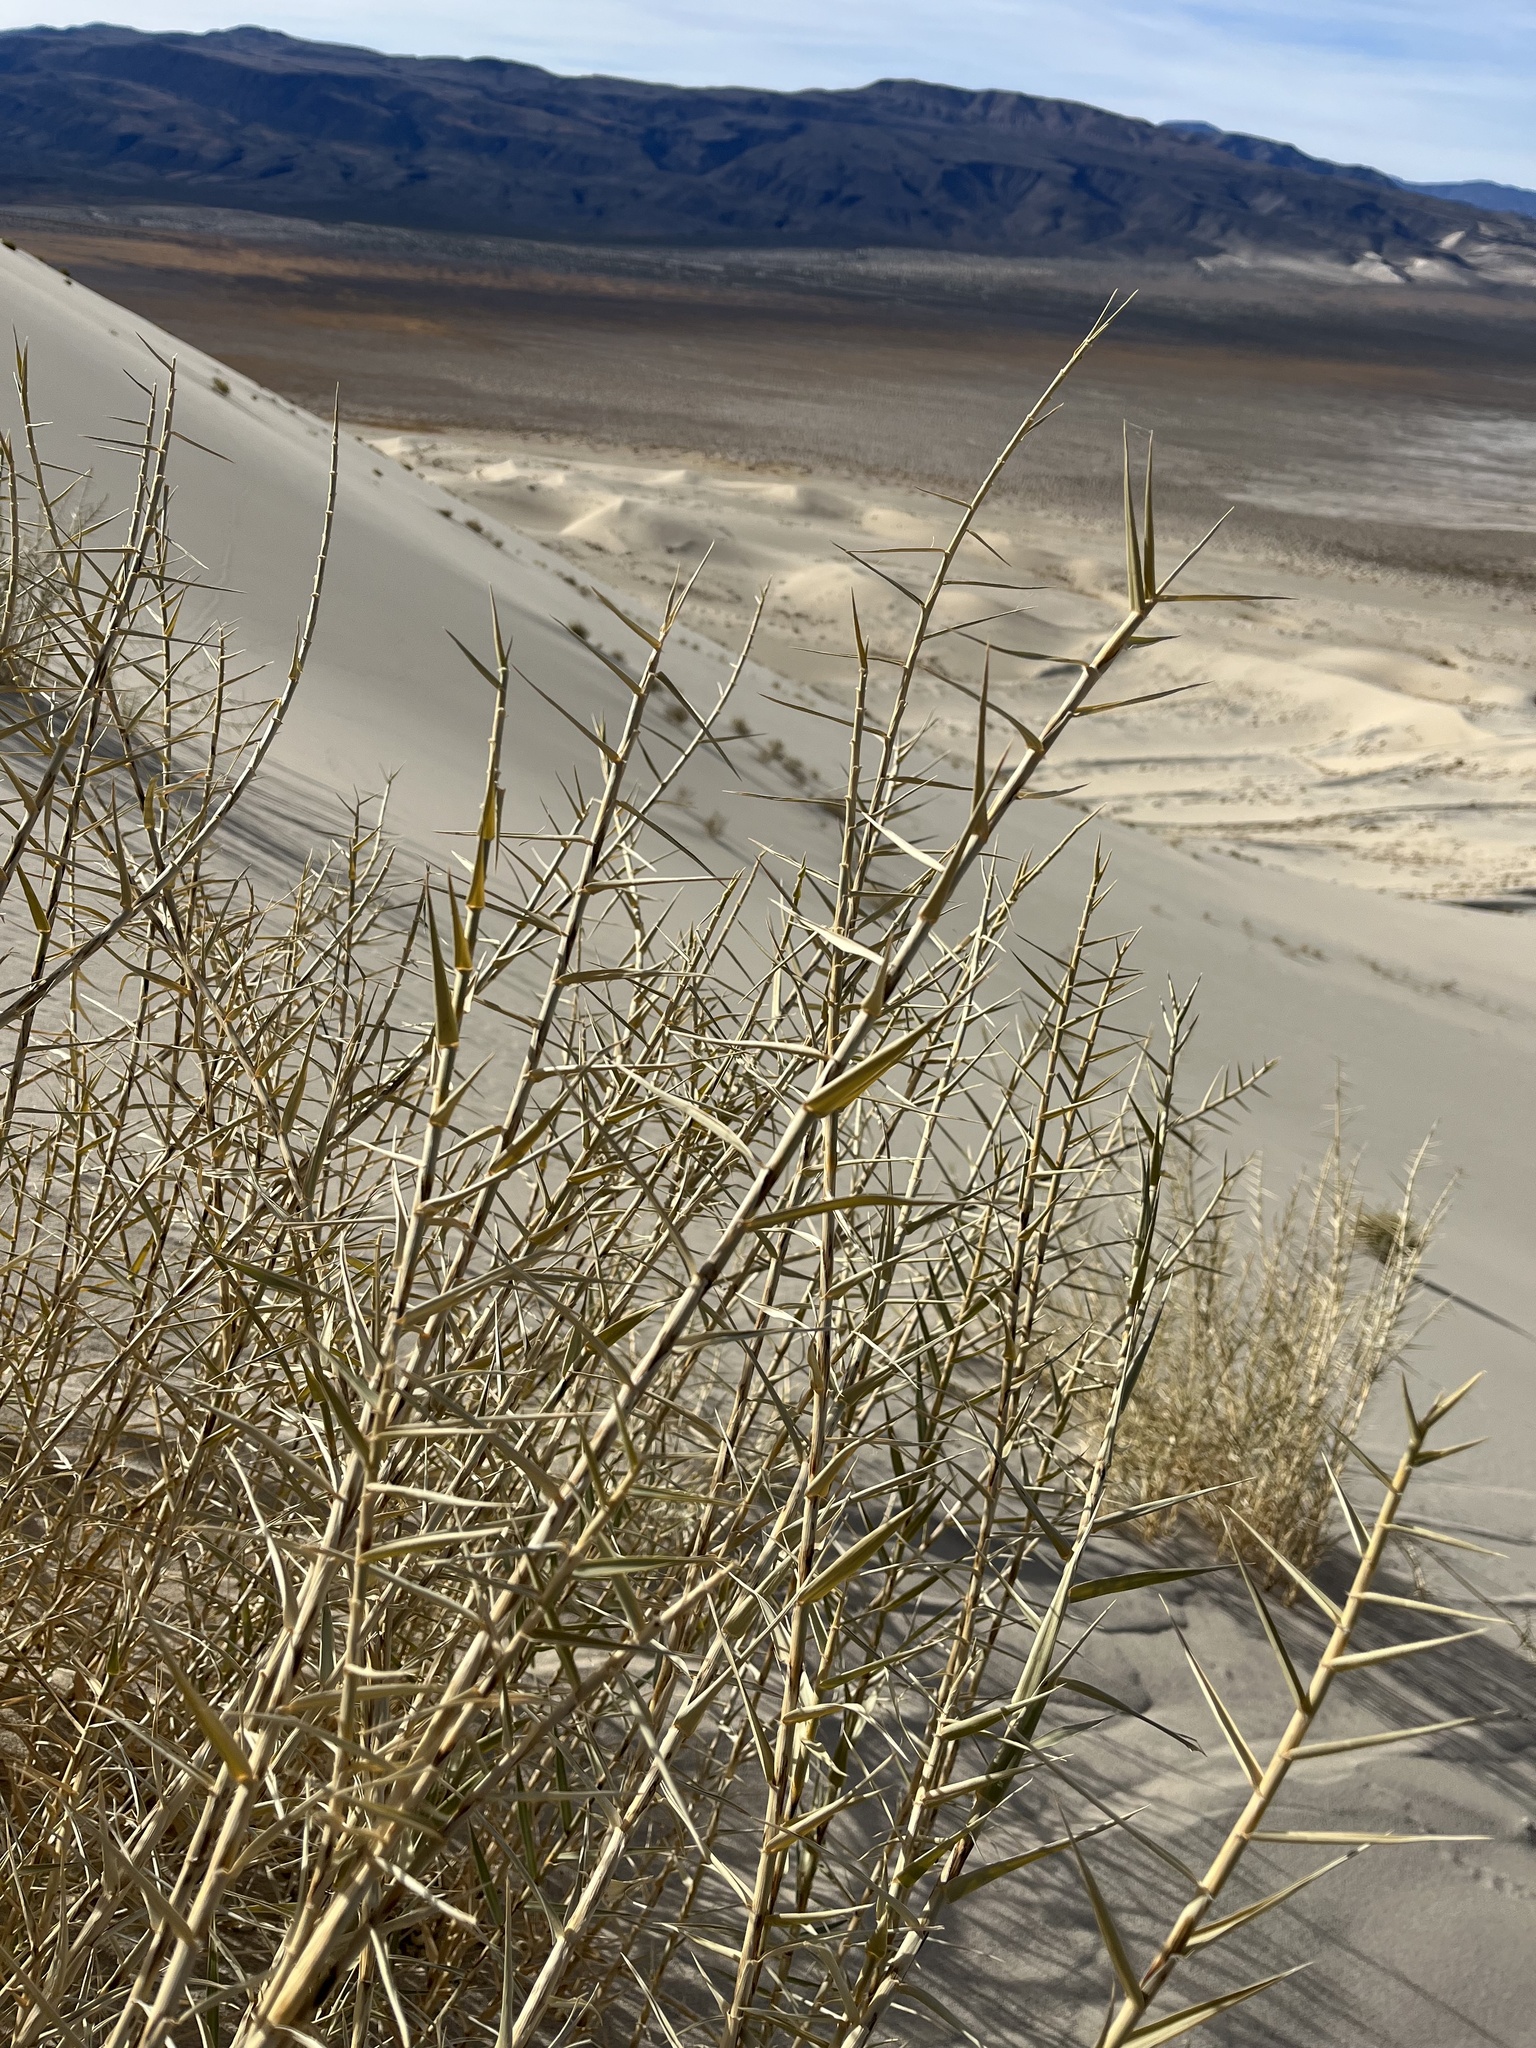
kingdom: Plantae
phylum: Tracheophyta
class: Liliopsida
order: Poales
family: Poaceae
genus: Swallenia
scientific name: Swallenia alexandrae
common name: Eureka dune grass
